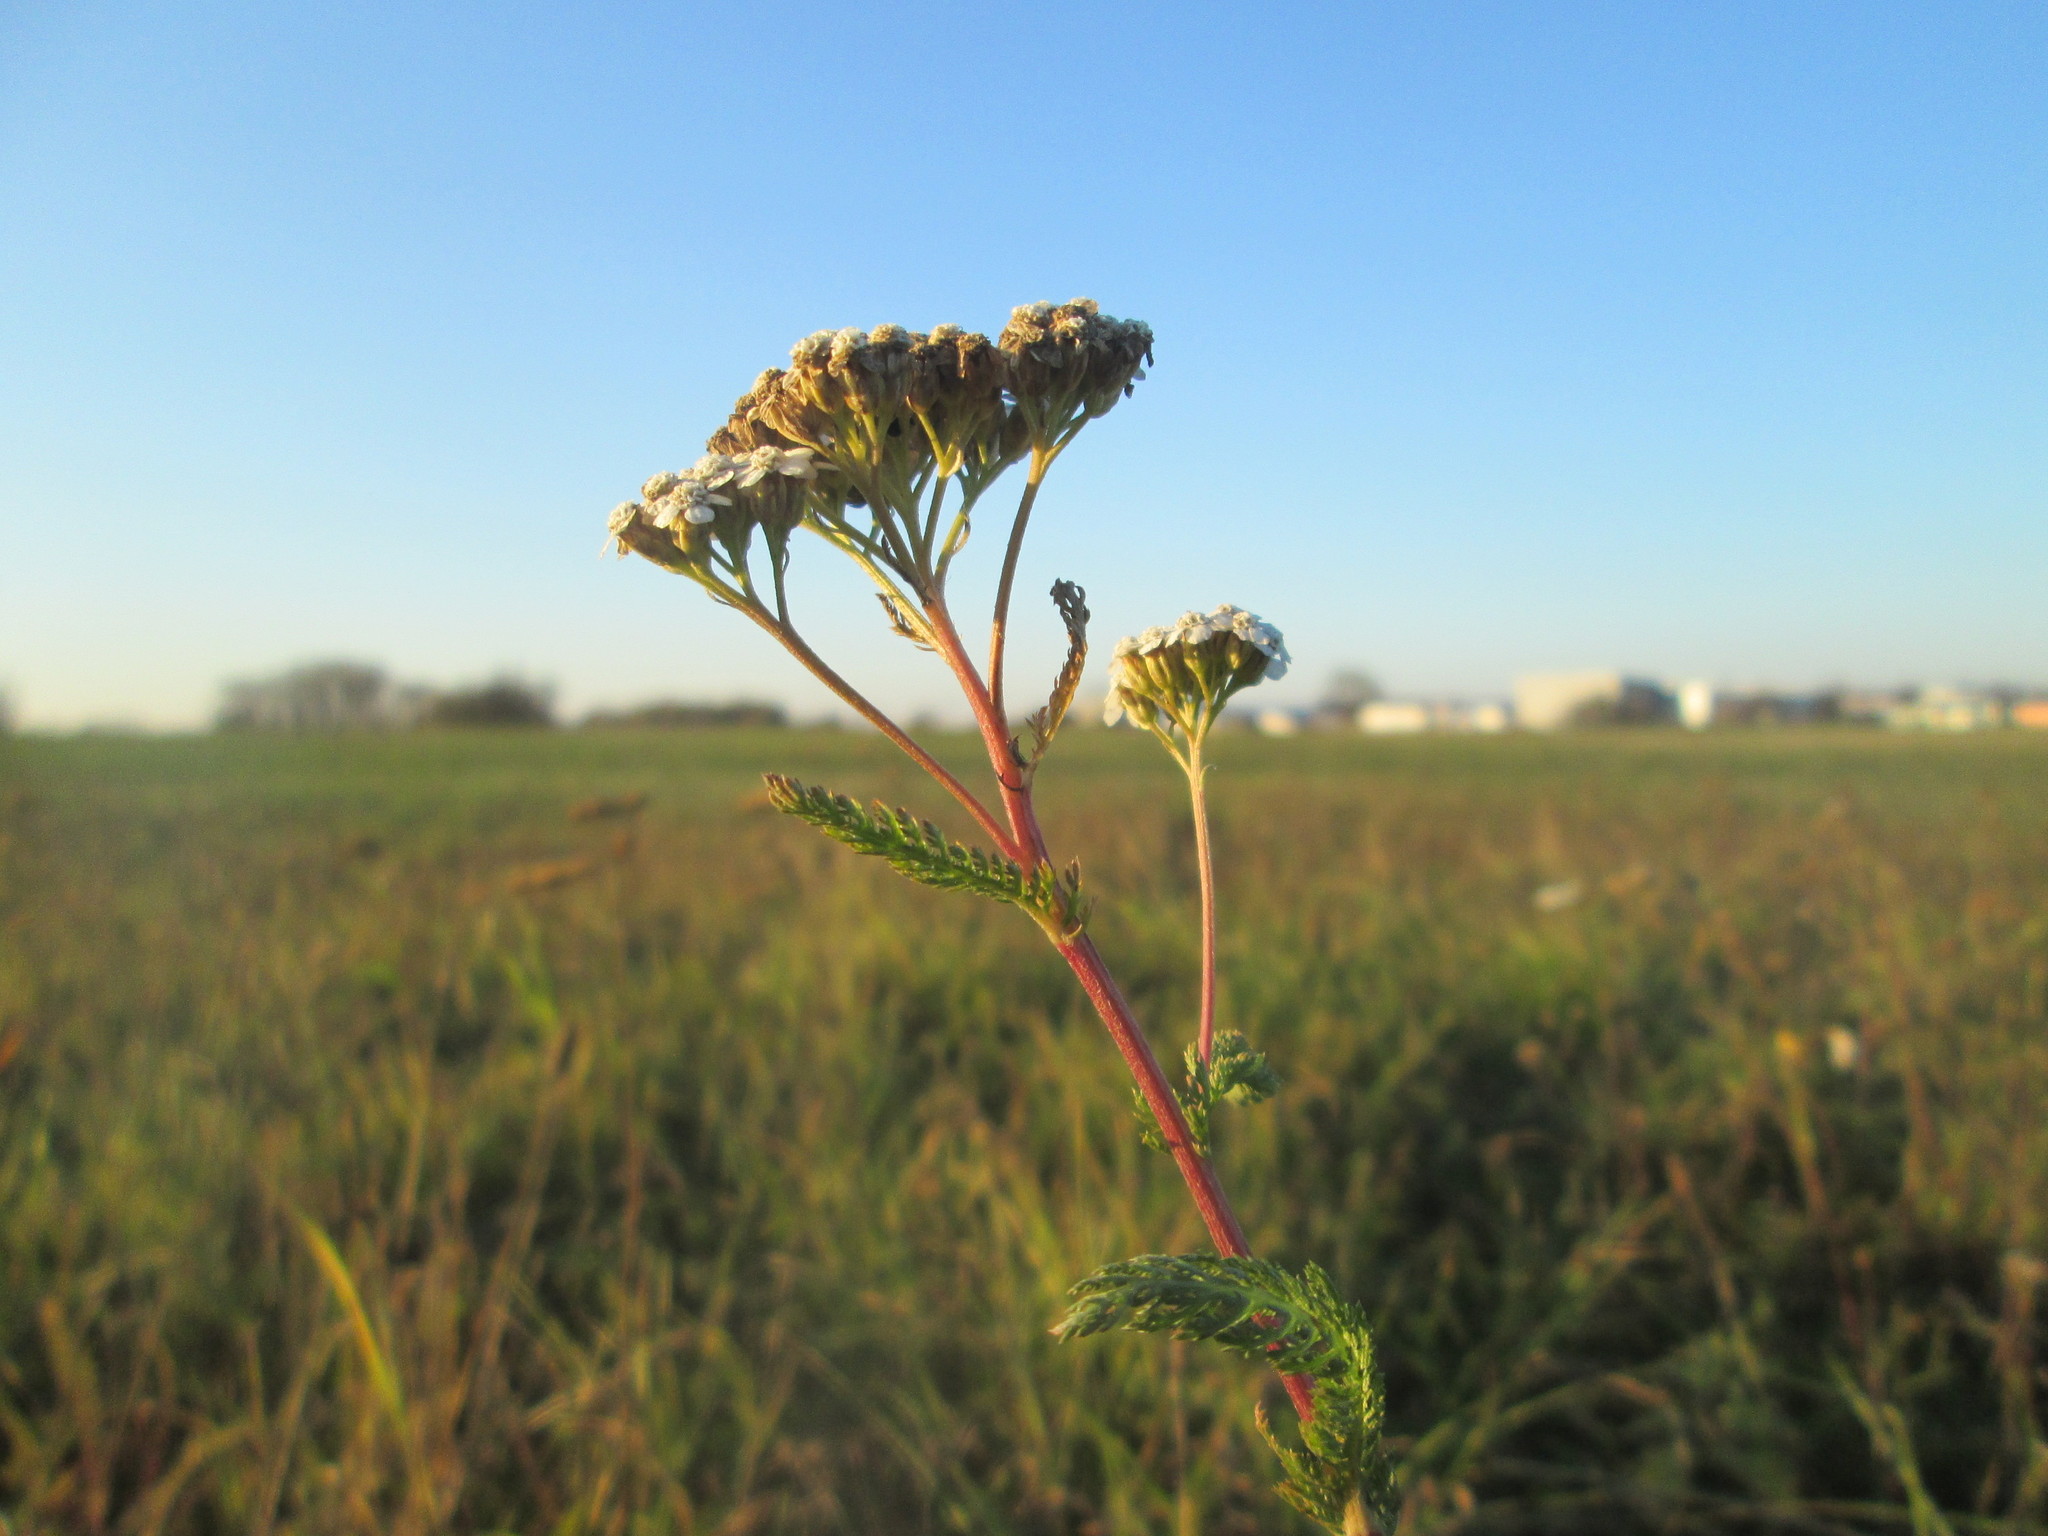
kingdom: Plantae
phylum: Tracheophyta
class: Magnoliopsida
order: Asterales
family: Asteraceae
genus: Achillea
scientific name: Achillea millefolium
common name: Yarrow
